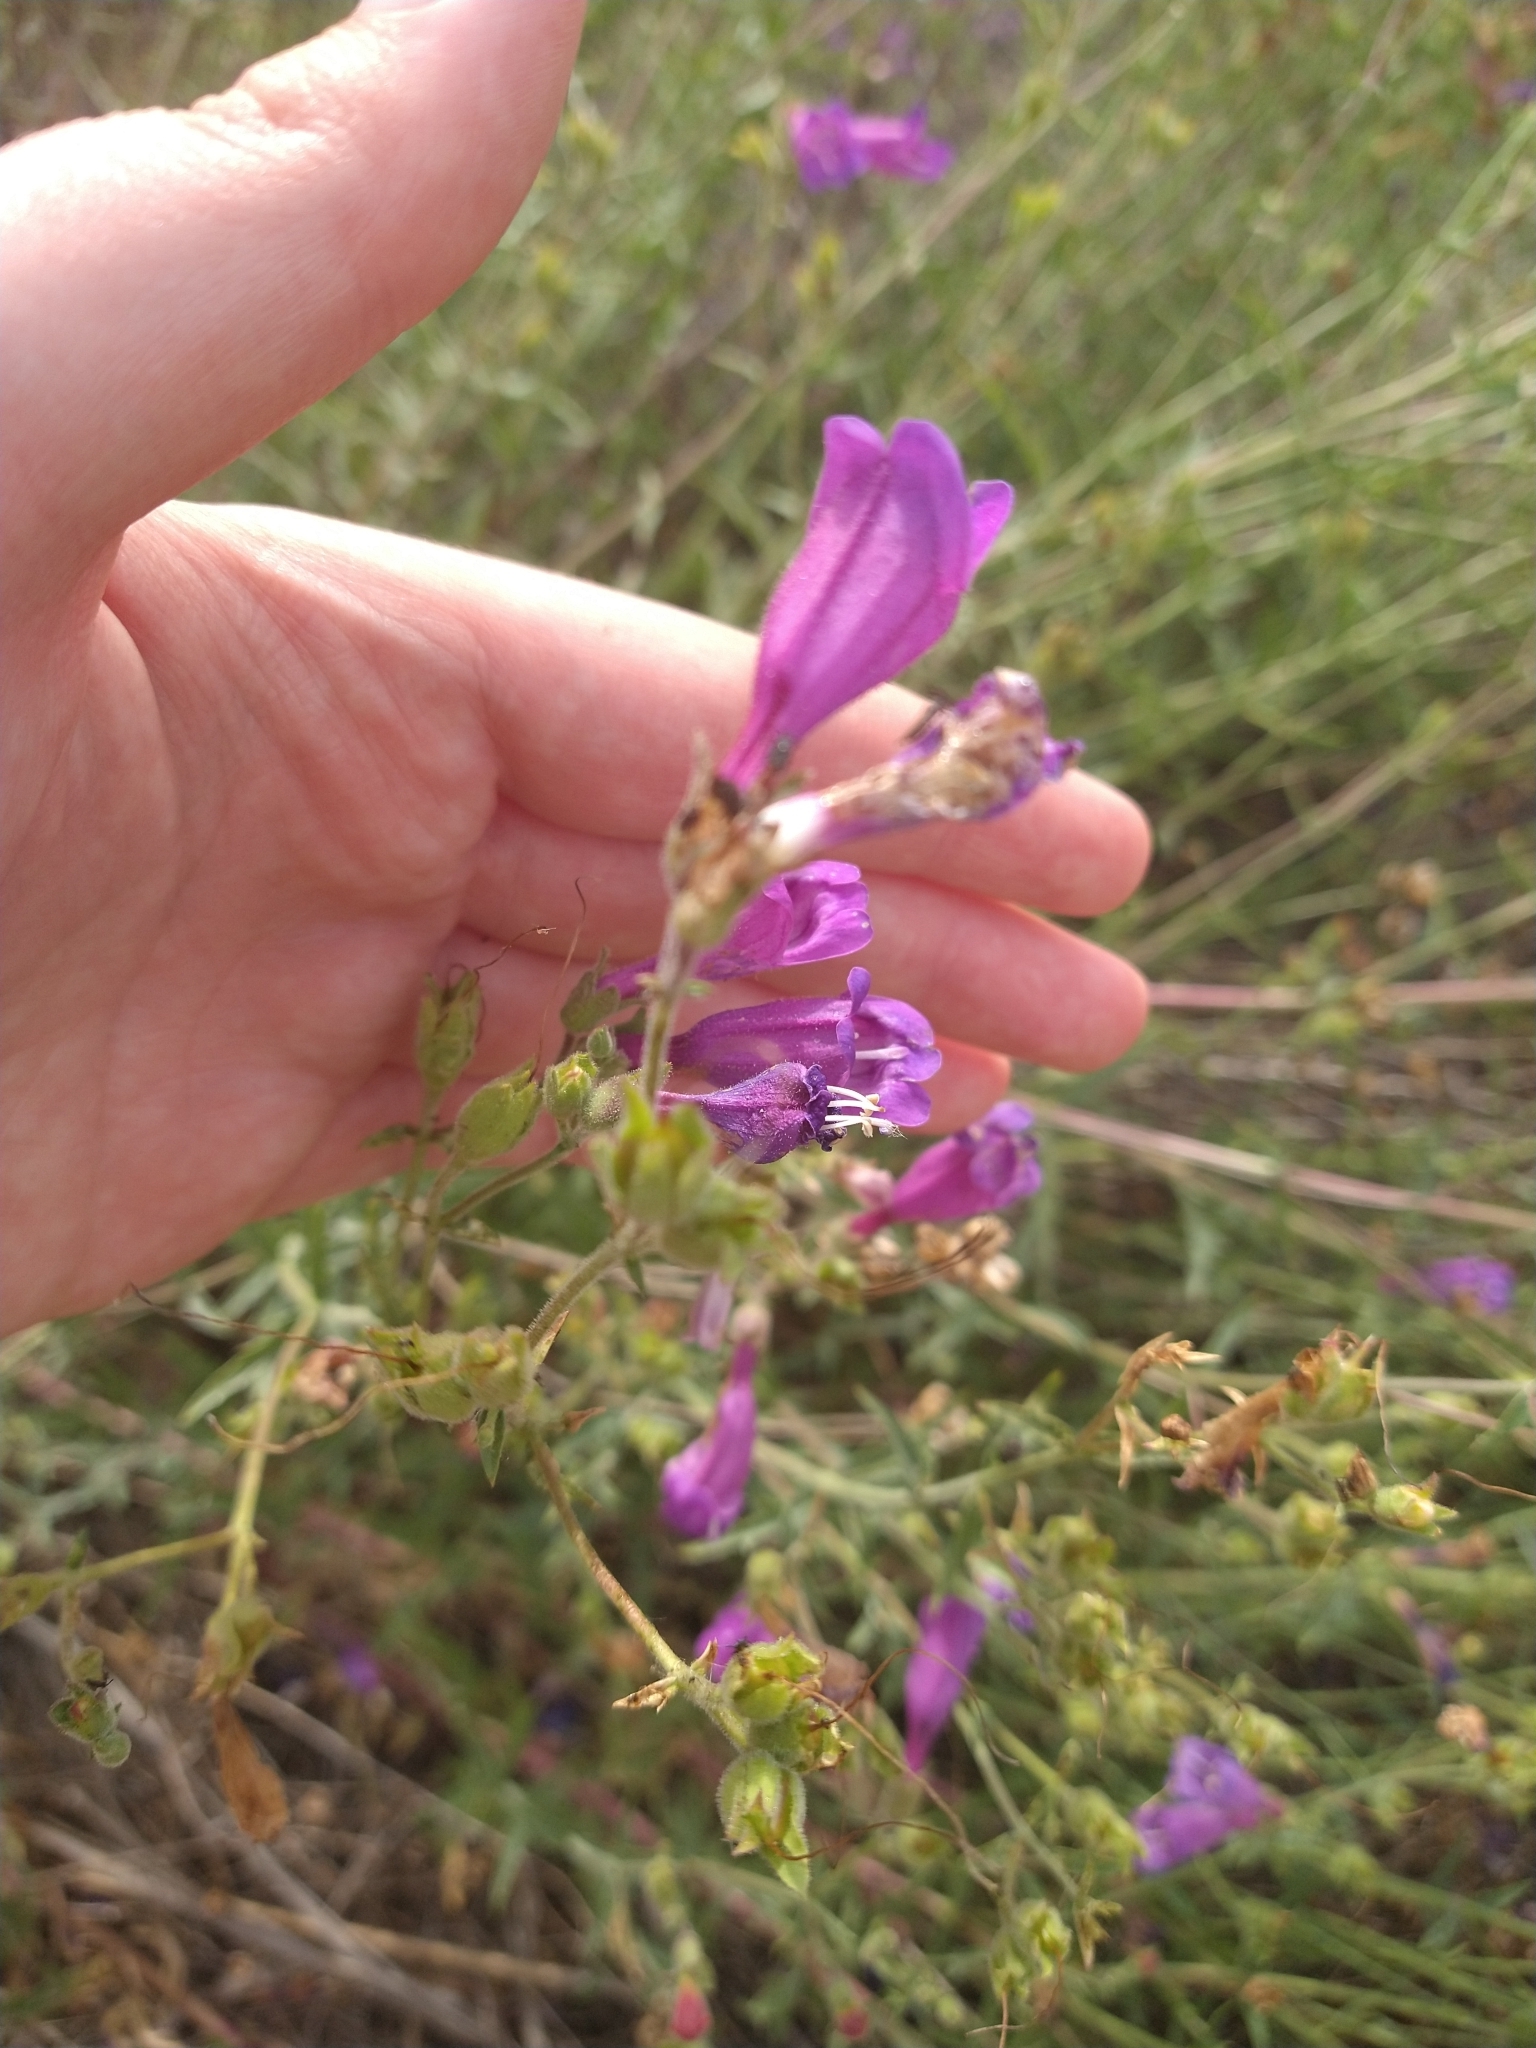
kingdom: Plantae
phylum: Tracheophyta
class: Magnoliopsida
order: Lamiales
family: Plantaginaceae
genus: Penstemon
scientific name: Penstemon richardsonii
